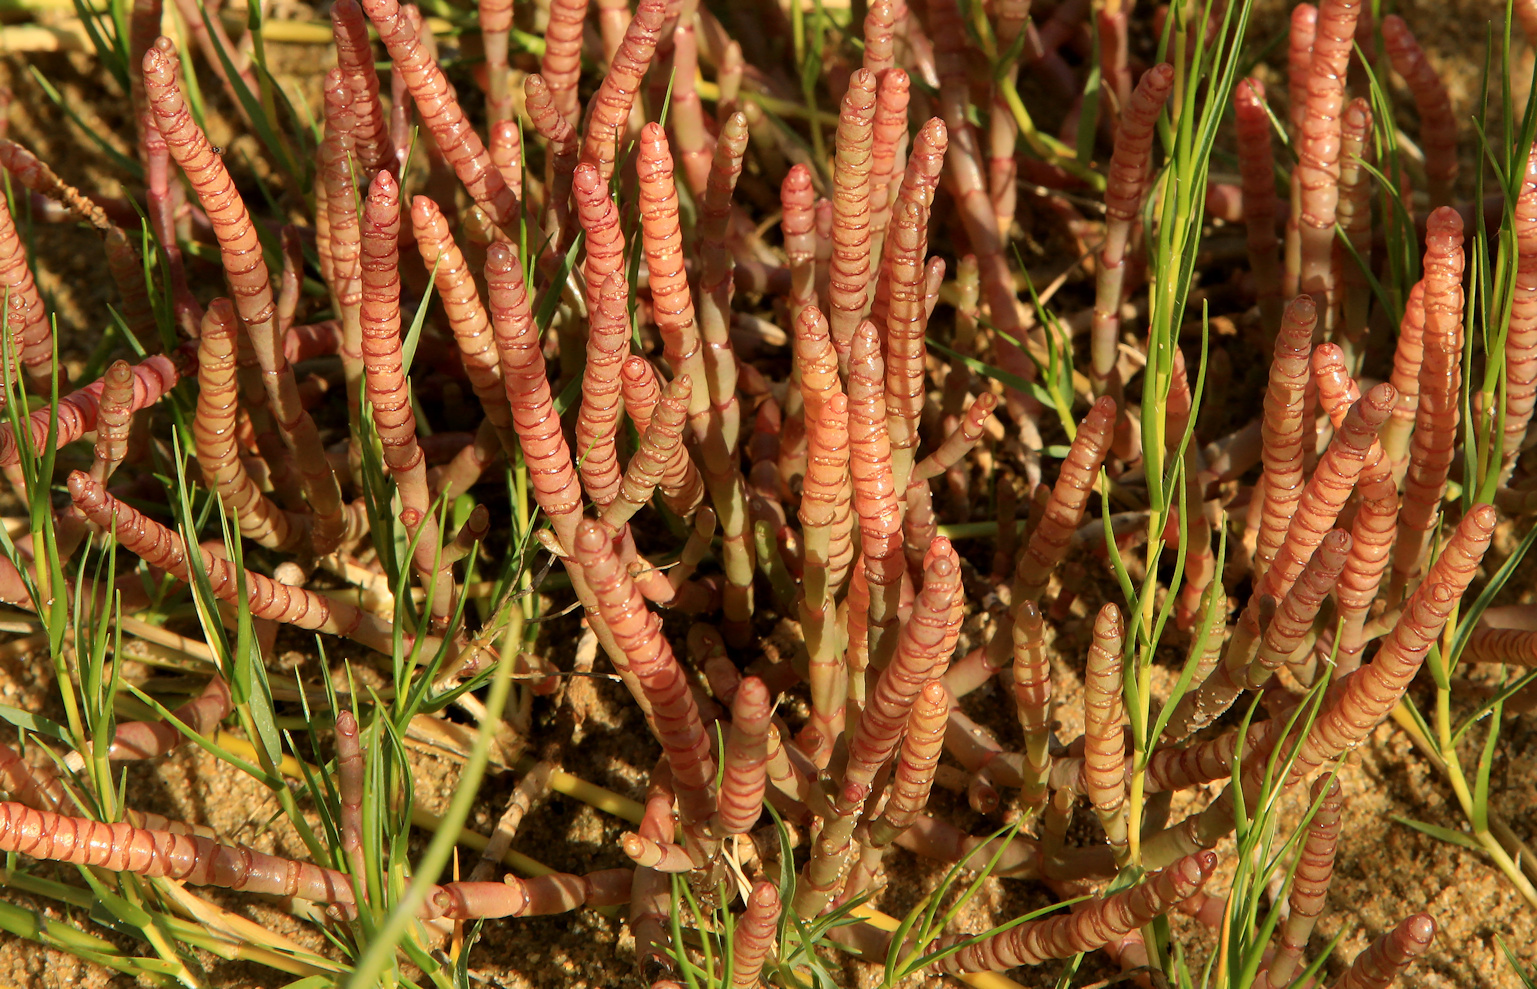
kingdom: Plantae
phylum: Tracheophyta
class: Magnoliopsida
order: Caryophyllales
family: Amaranthaceae
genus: Salicornia
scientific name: Salicornia natalensis
